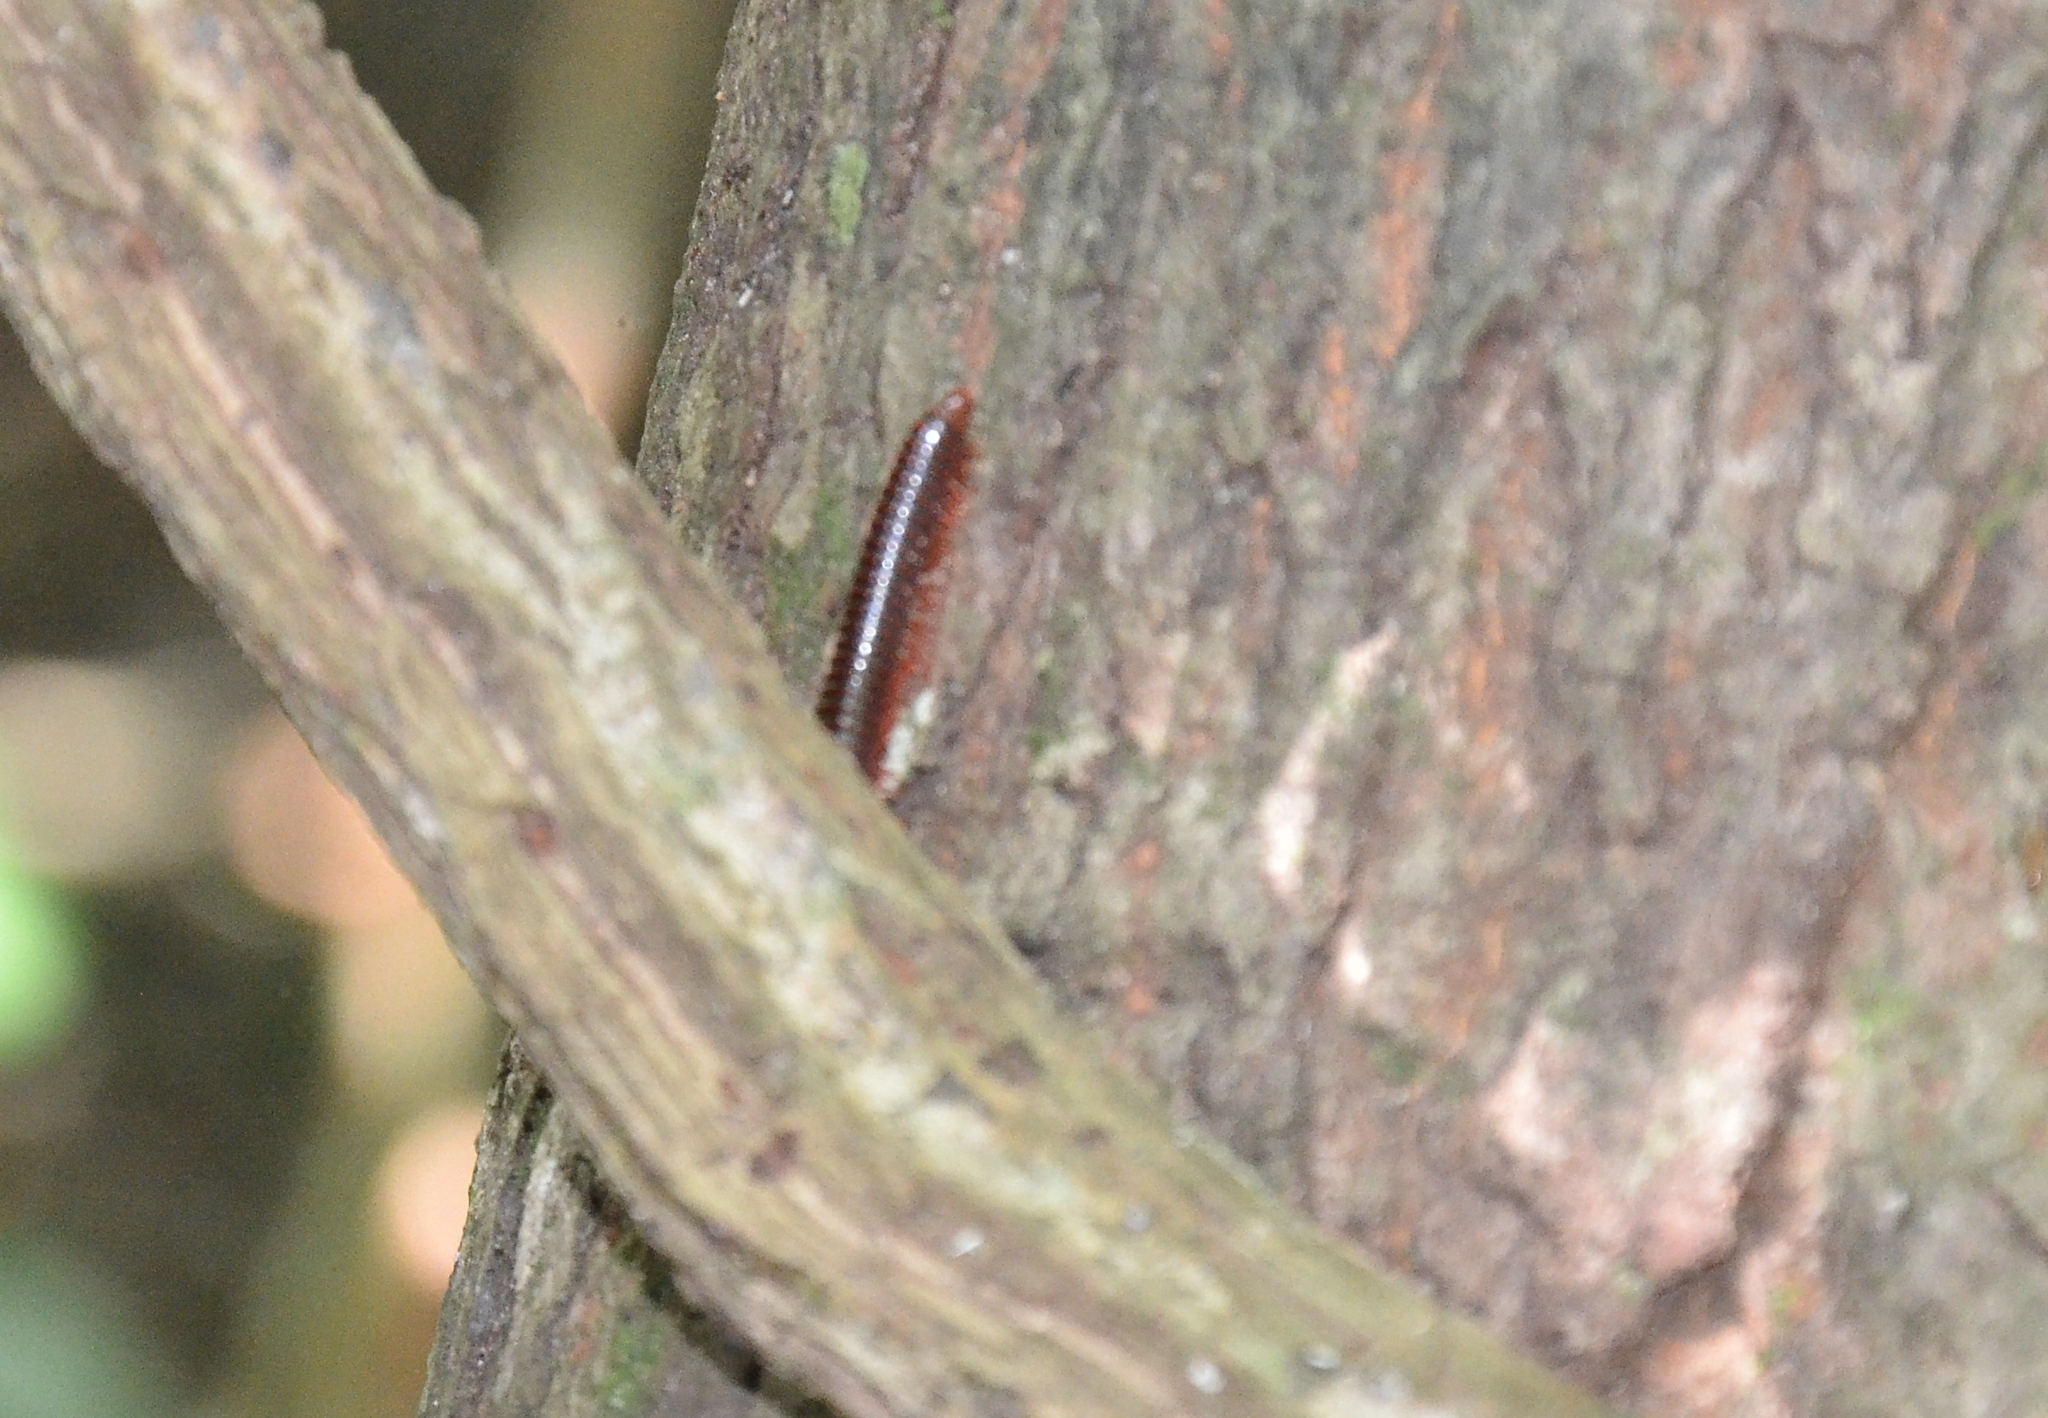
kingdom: Animalia
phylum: Arthropoda
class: Diplopoda
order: Spirobolida
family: Pachybolidae
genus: Trigoniulus
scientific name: Trigoniulus corallinus
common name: Millipede
